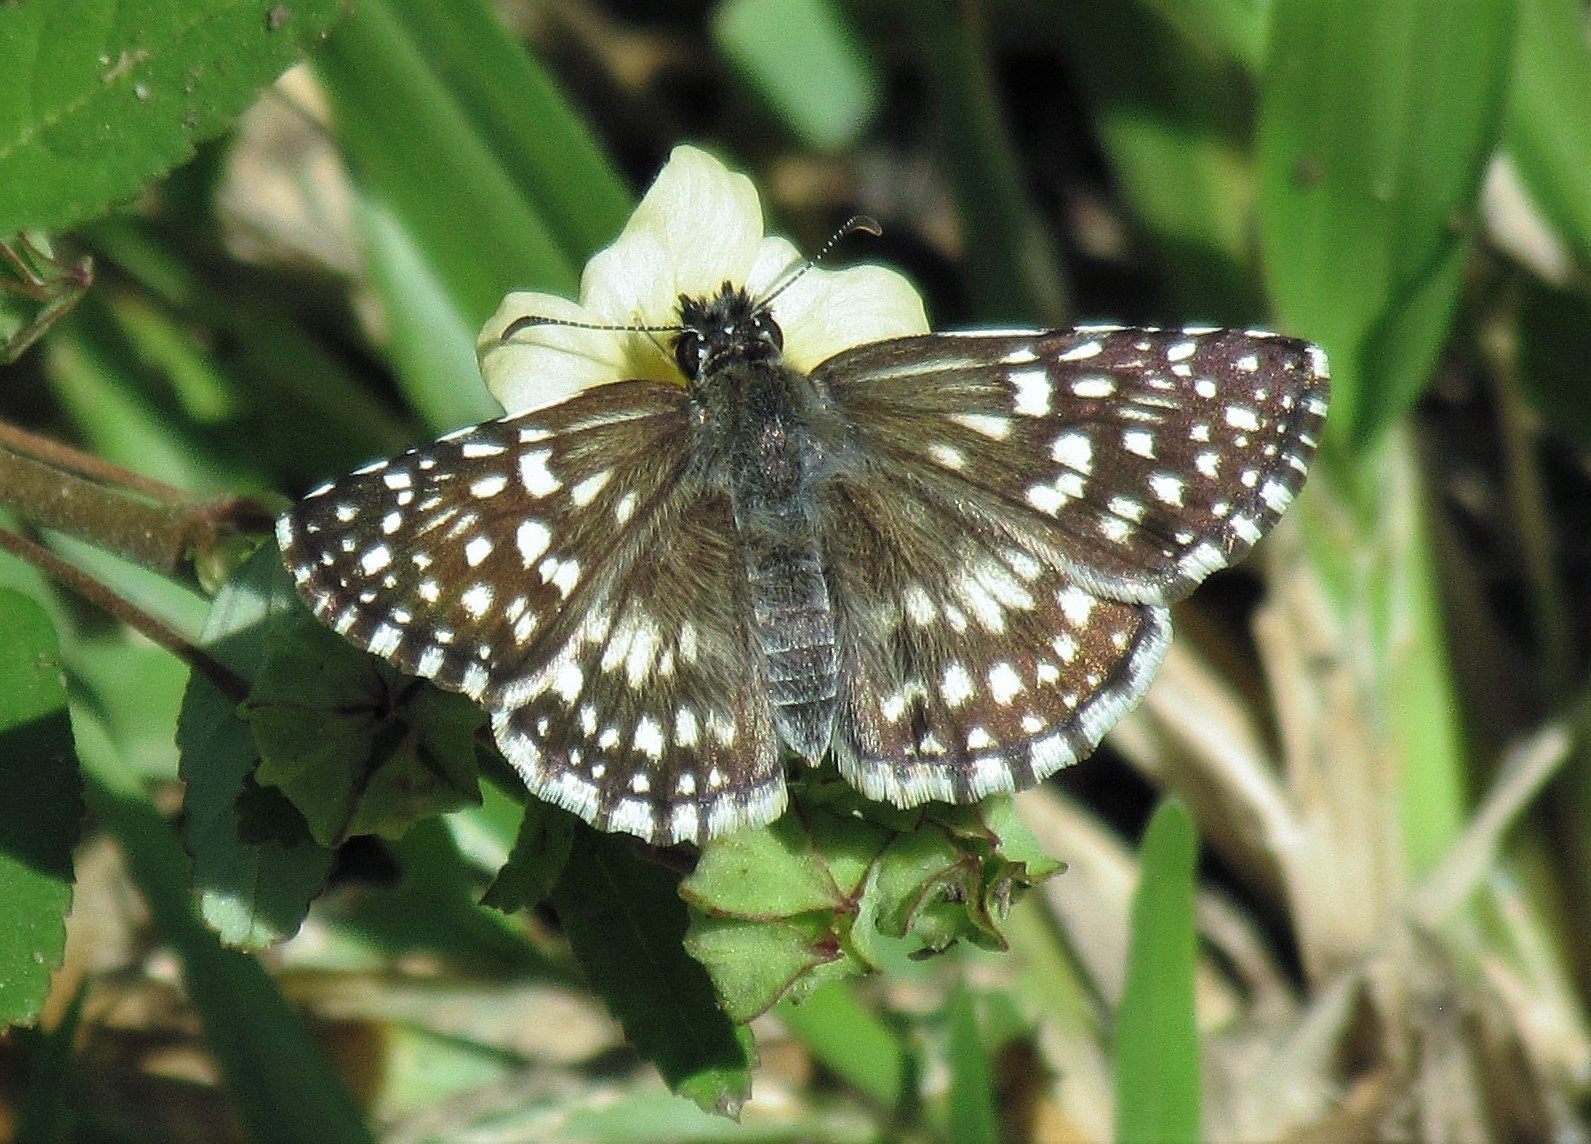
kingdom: Animalia
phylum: Arthropoda
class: Insecta
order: Lepidoptera
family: Hesperiidae
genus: Pyrgus
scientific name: Pyrgus oileus
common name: Tropical checkered-skipper
